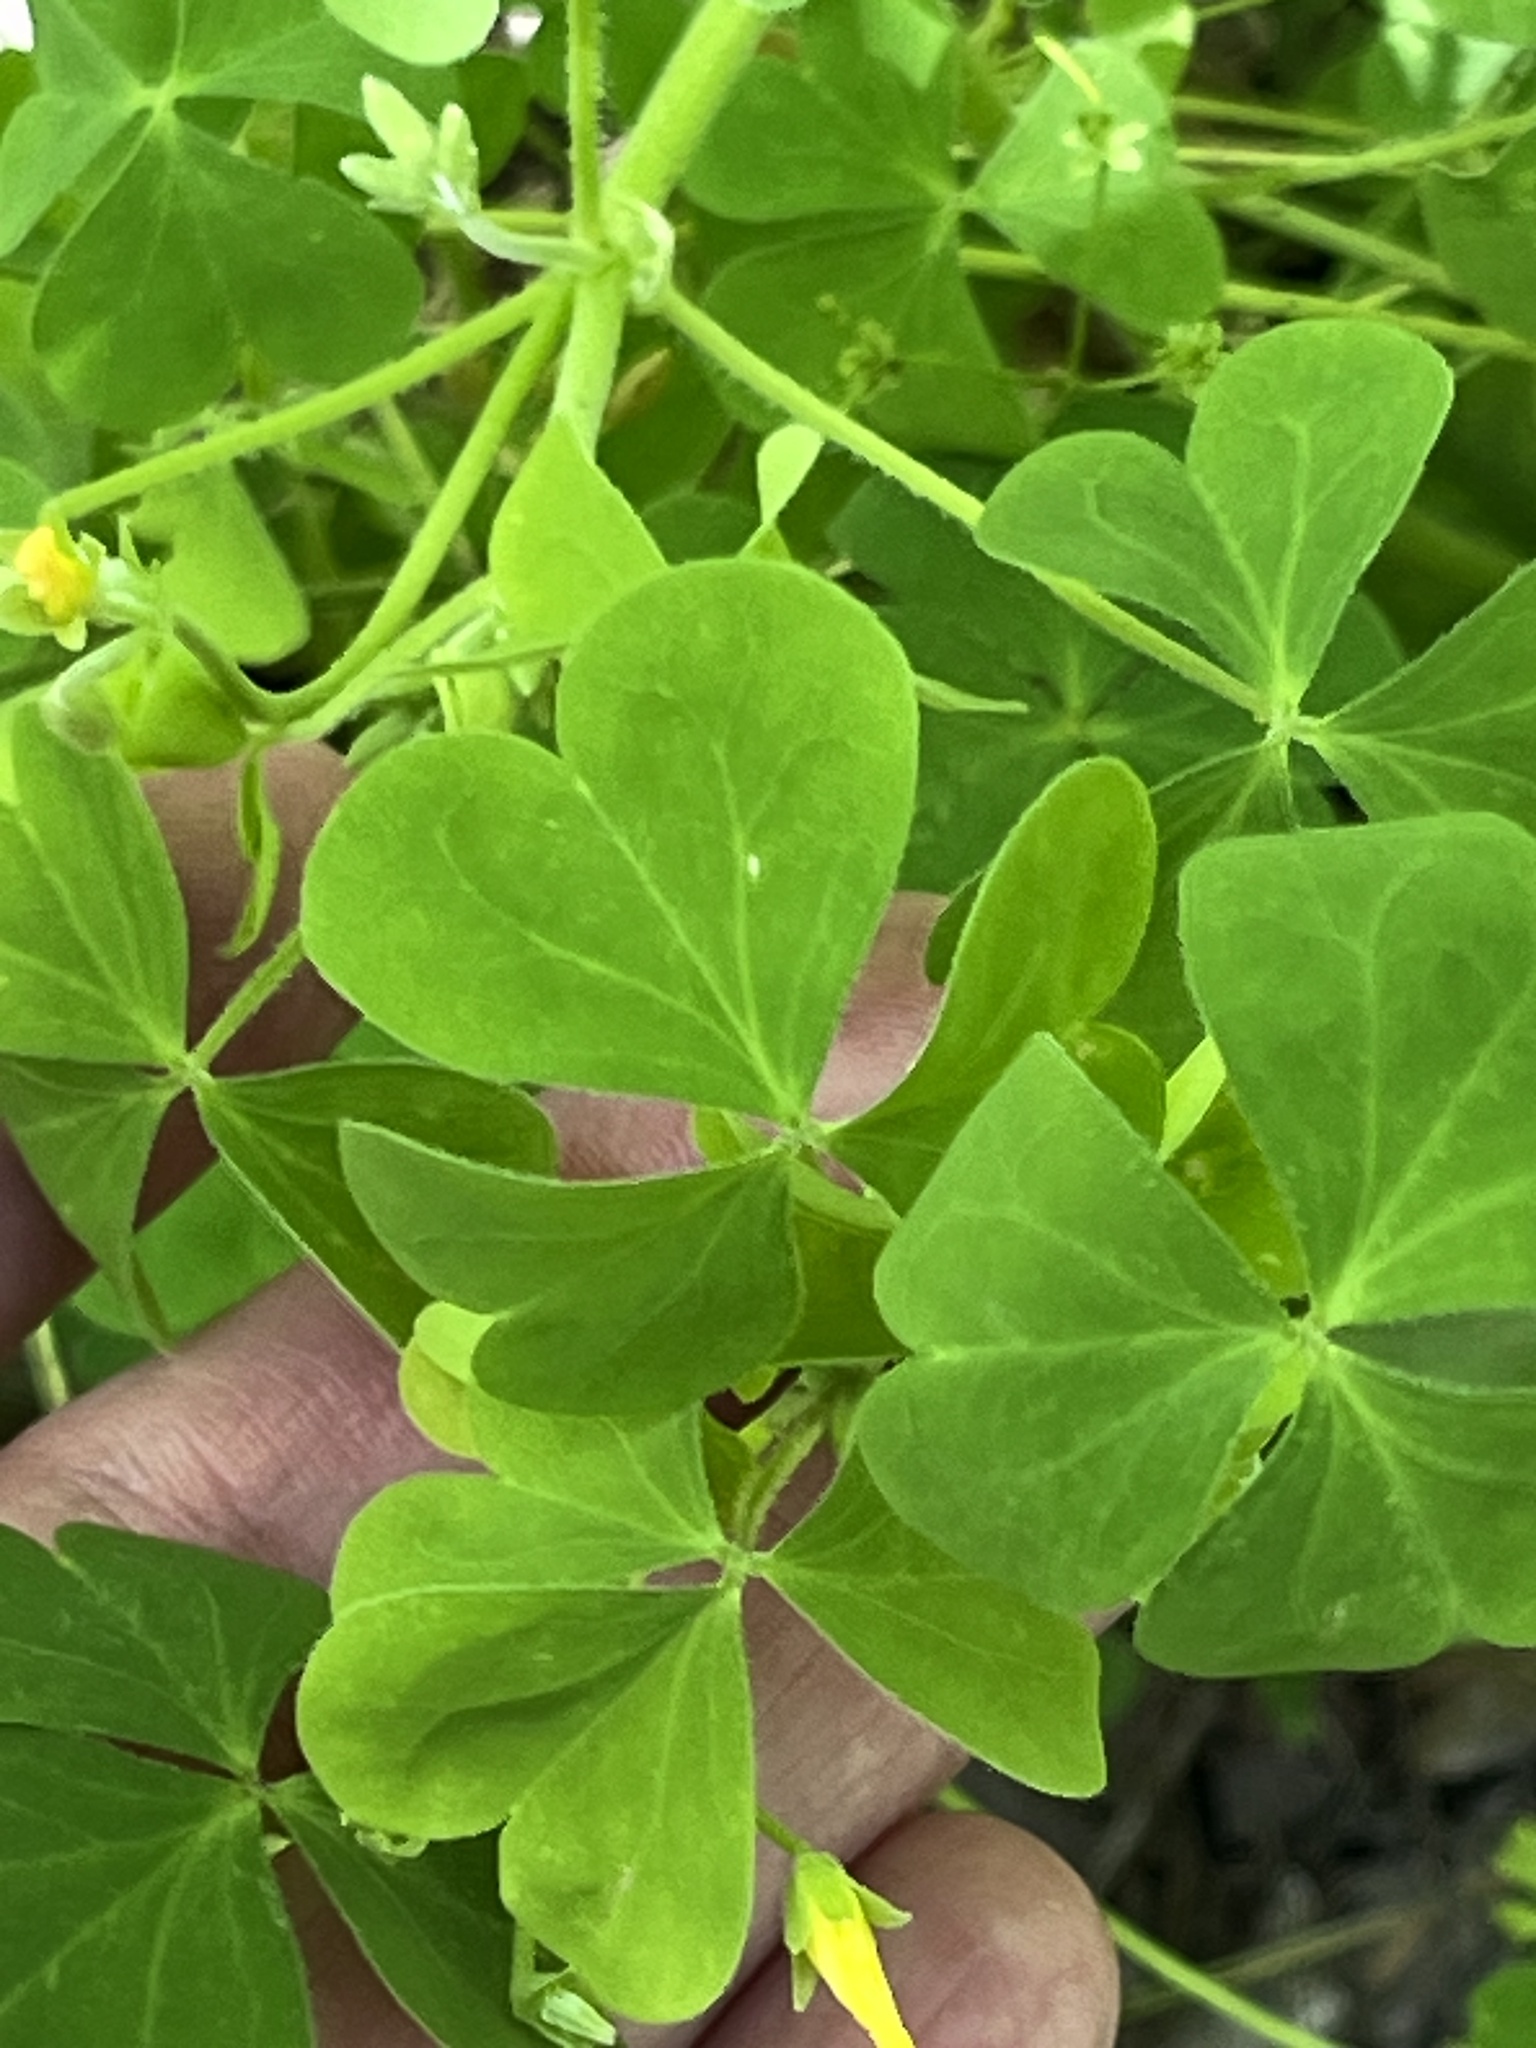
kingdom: Plantae
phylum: Tracheophyta
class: Magnoliopsida
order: Oxalidales
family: Oxalidaceae
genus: Oxalis
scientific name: Oxalis dillenii
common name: Sussex yellow-sorrel
